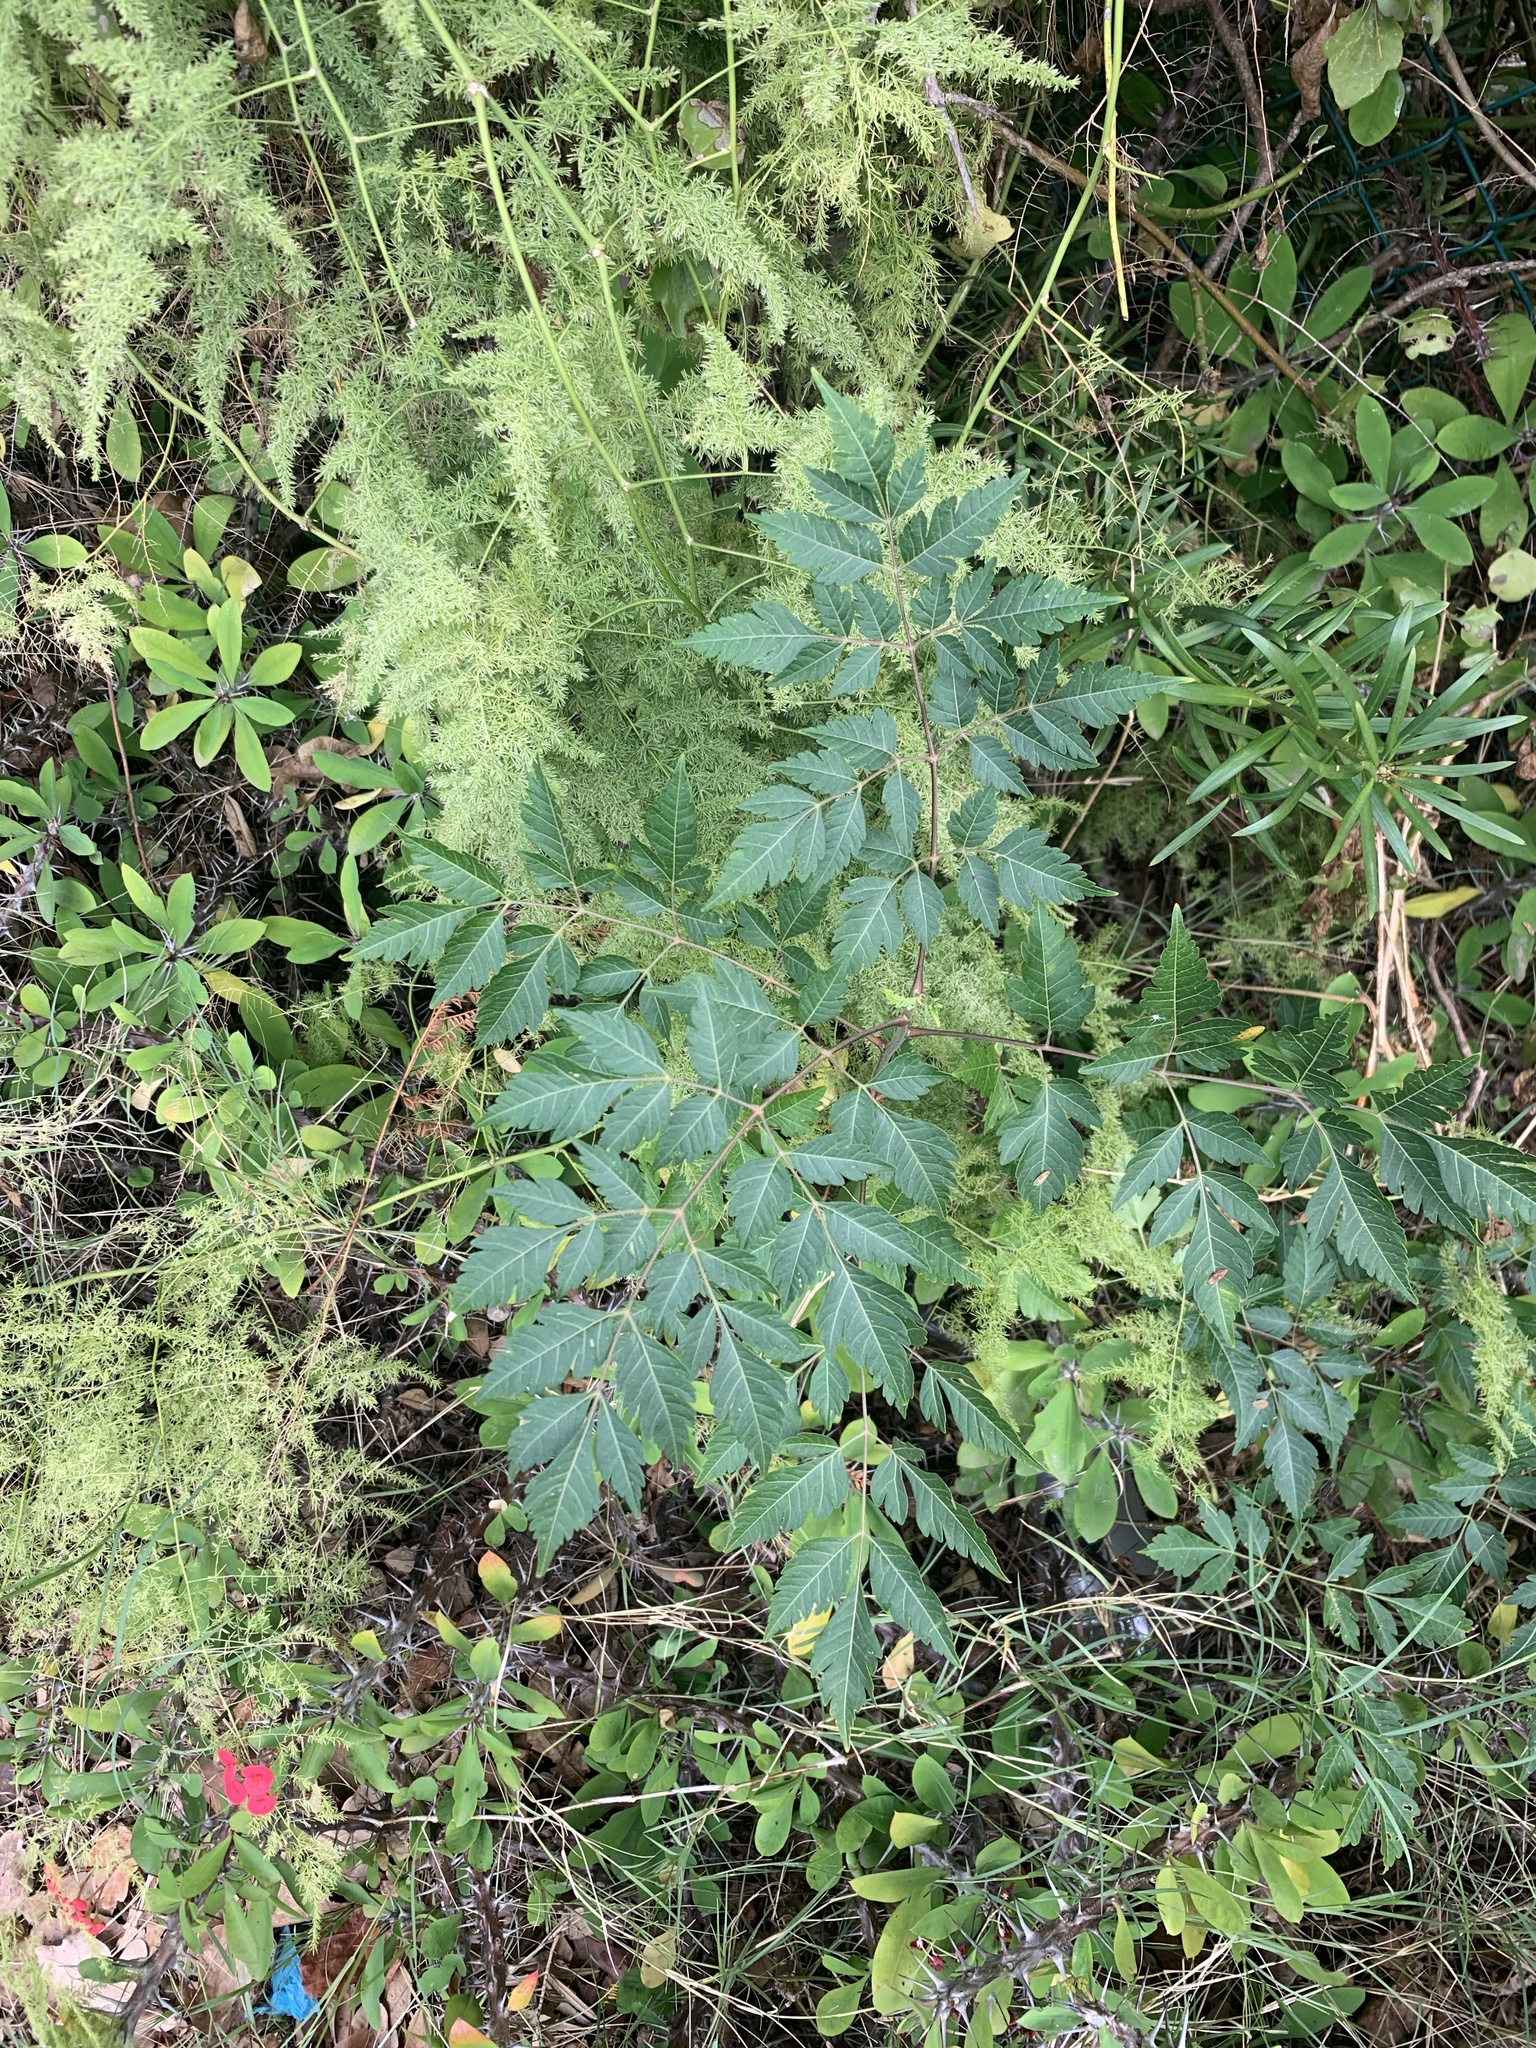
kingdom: Plantae
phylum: Tracheophyta
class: Magnoliopsida
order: Sapindales
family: Meliaceae
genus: Melia
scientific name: Melia azedarach
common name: Chinaberrytree
